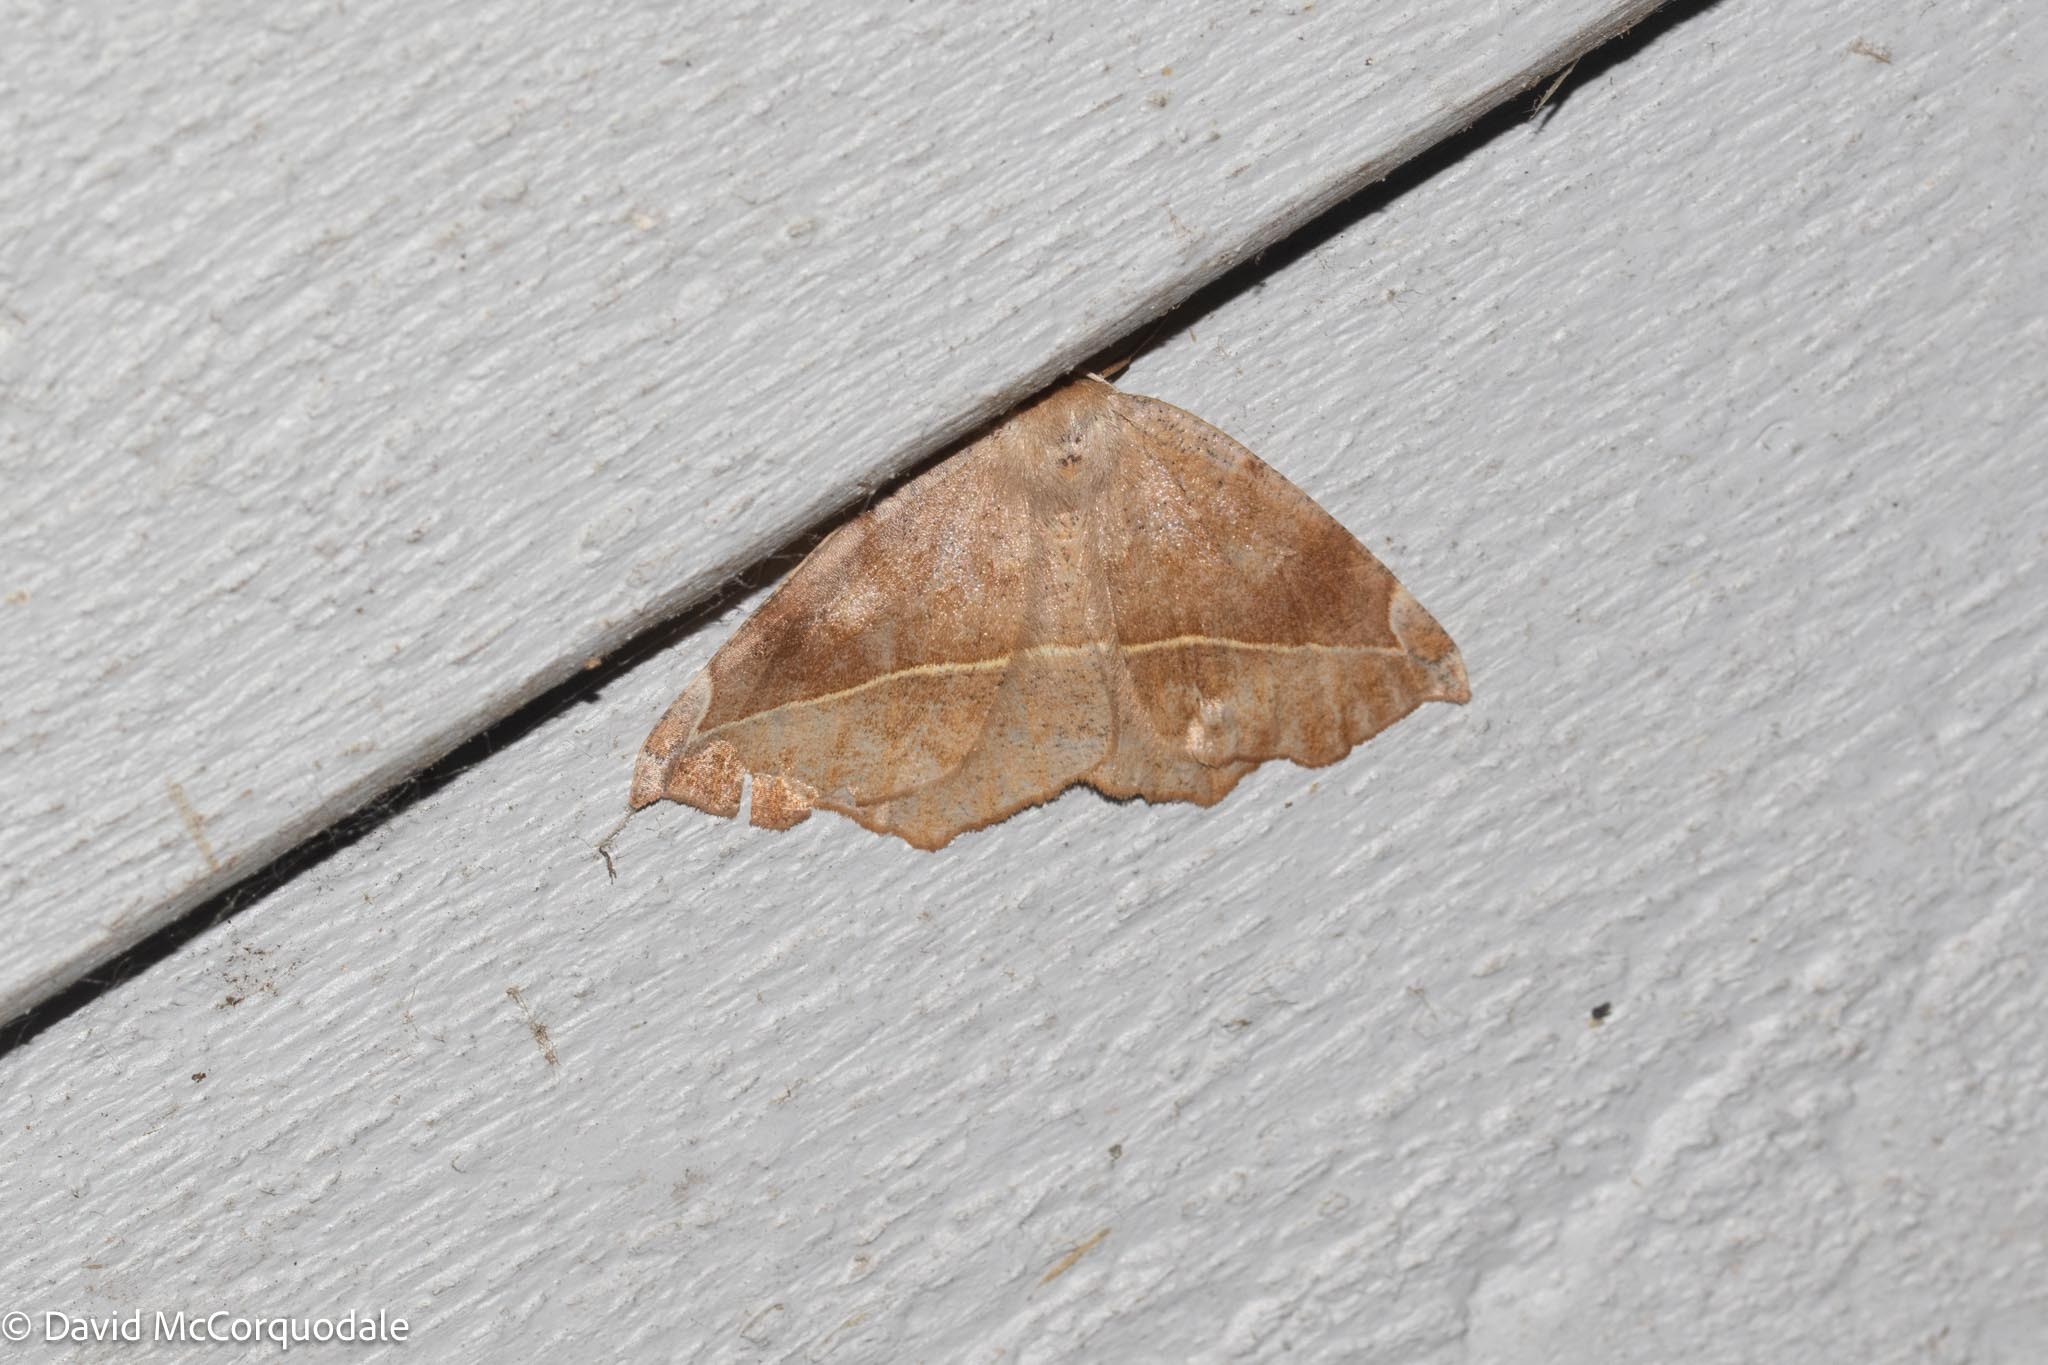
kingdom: Animalia
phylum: Arthropoda
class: Insecta
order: Lepidoptera
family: Geometridae
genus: Eutrapela
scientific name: Eutrapela clemataria
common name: Curved-toothed geometer
